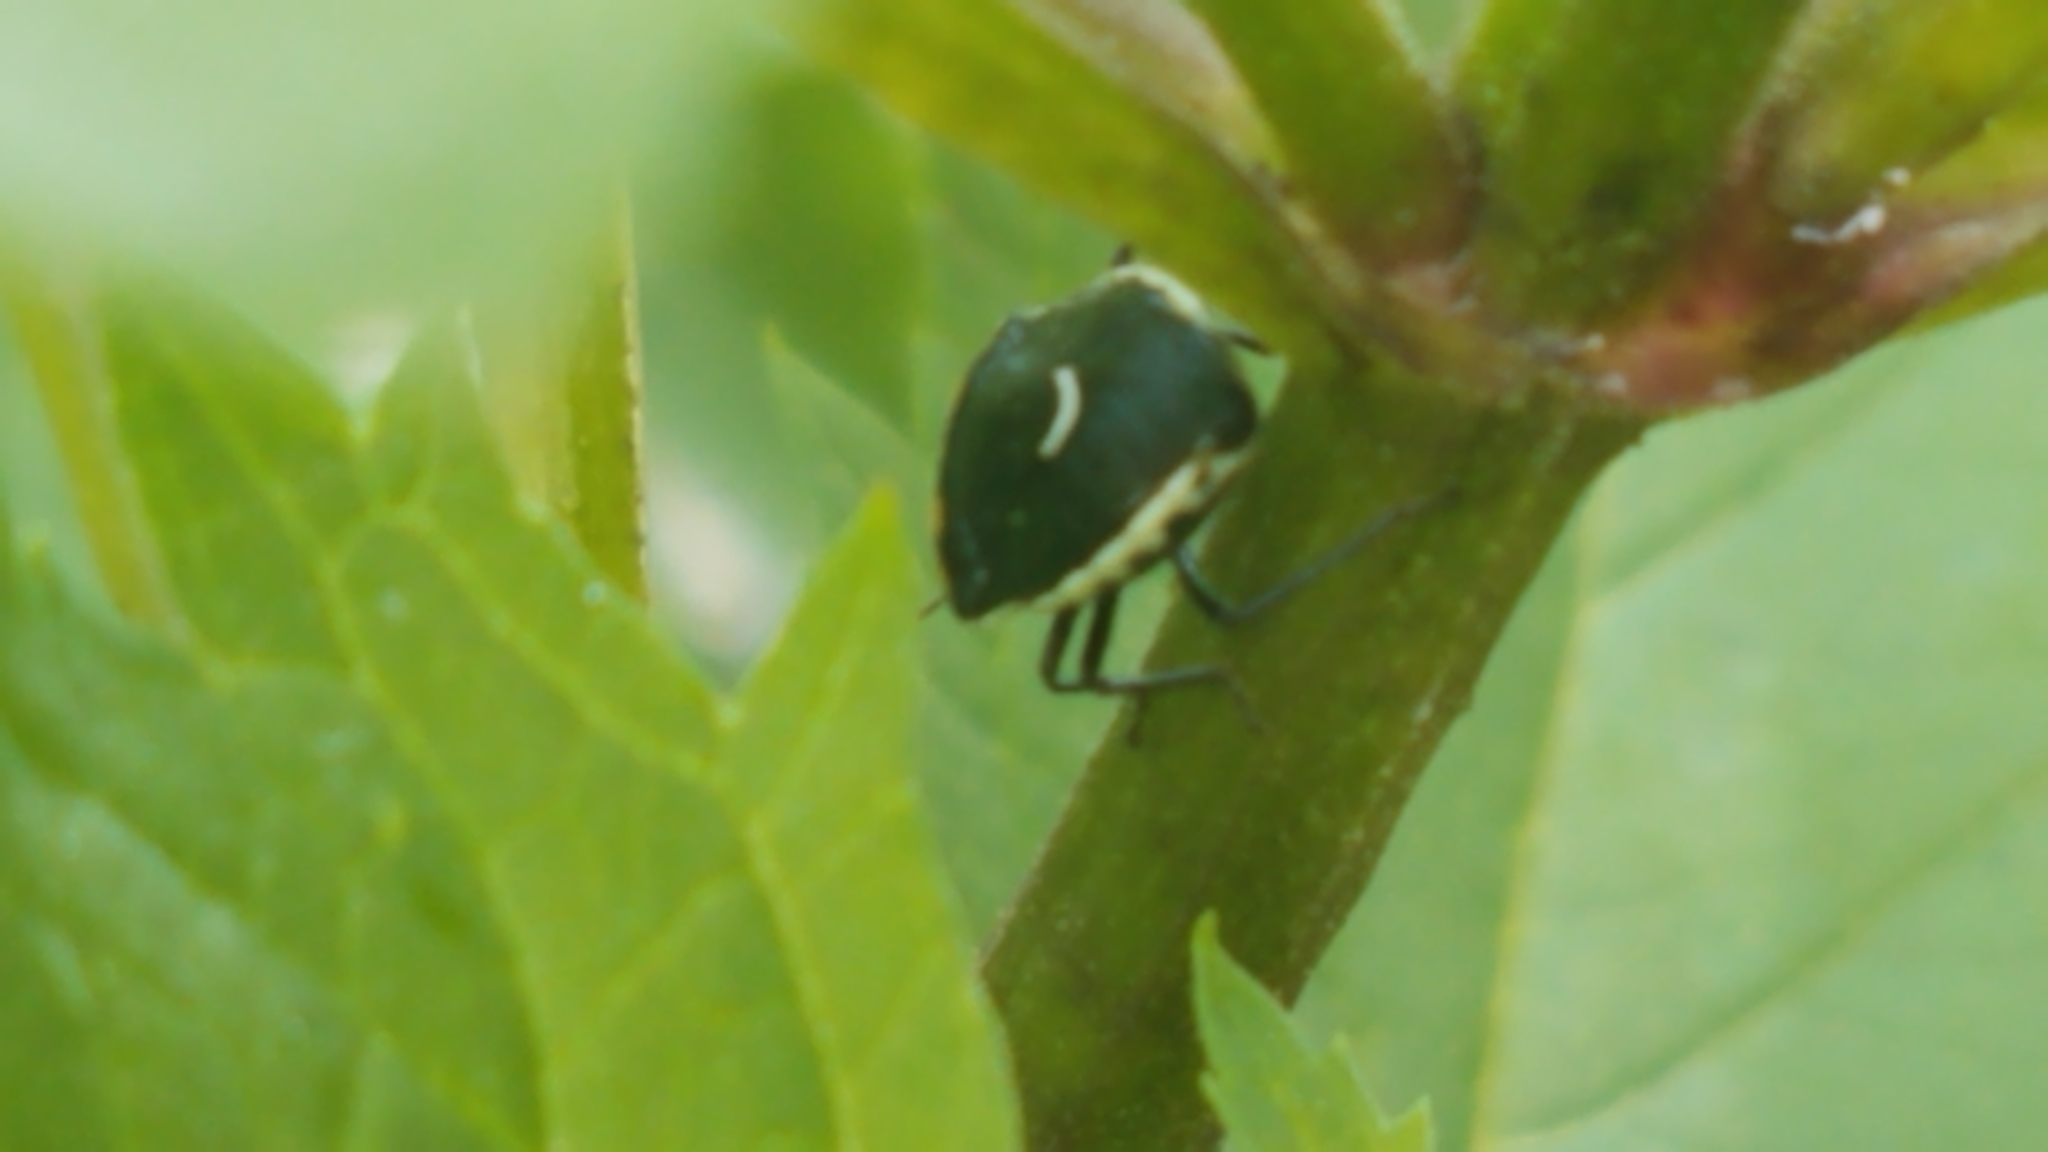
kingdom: Animalia
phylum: Arthropoda
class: Insecta
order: Hemiptera
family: Pentatomidae
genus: Cosmopepla
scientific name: Cosmopepla conspicillaris
